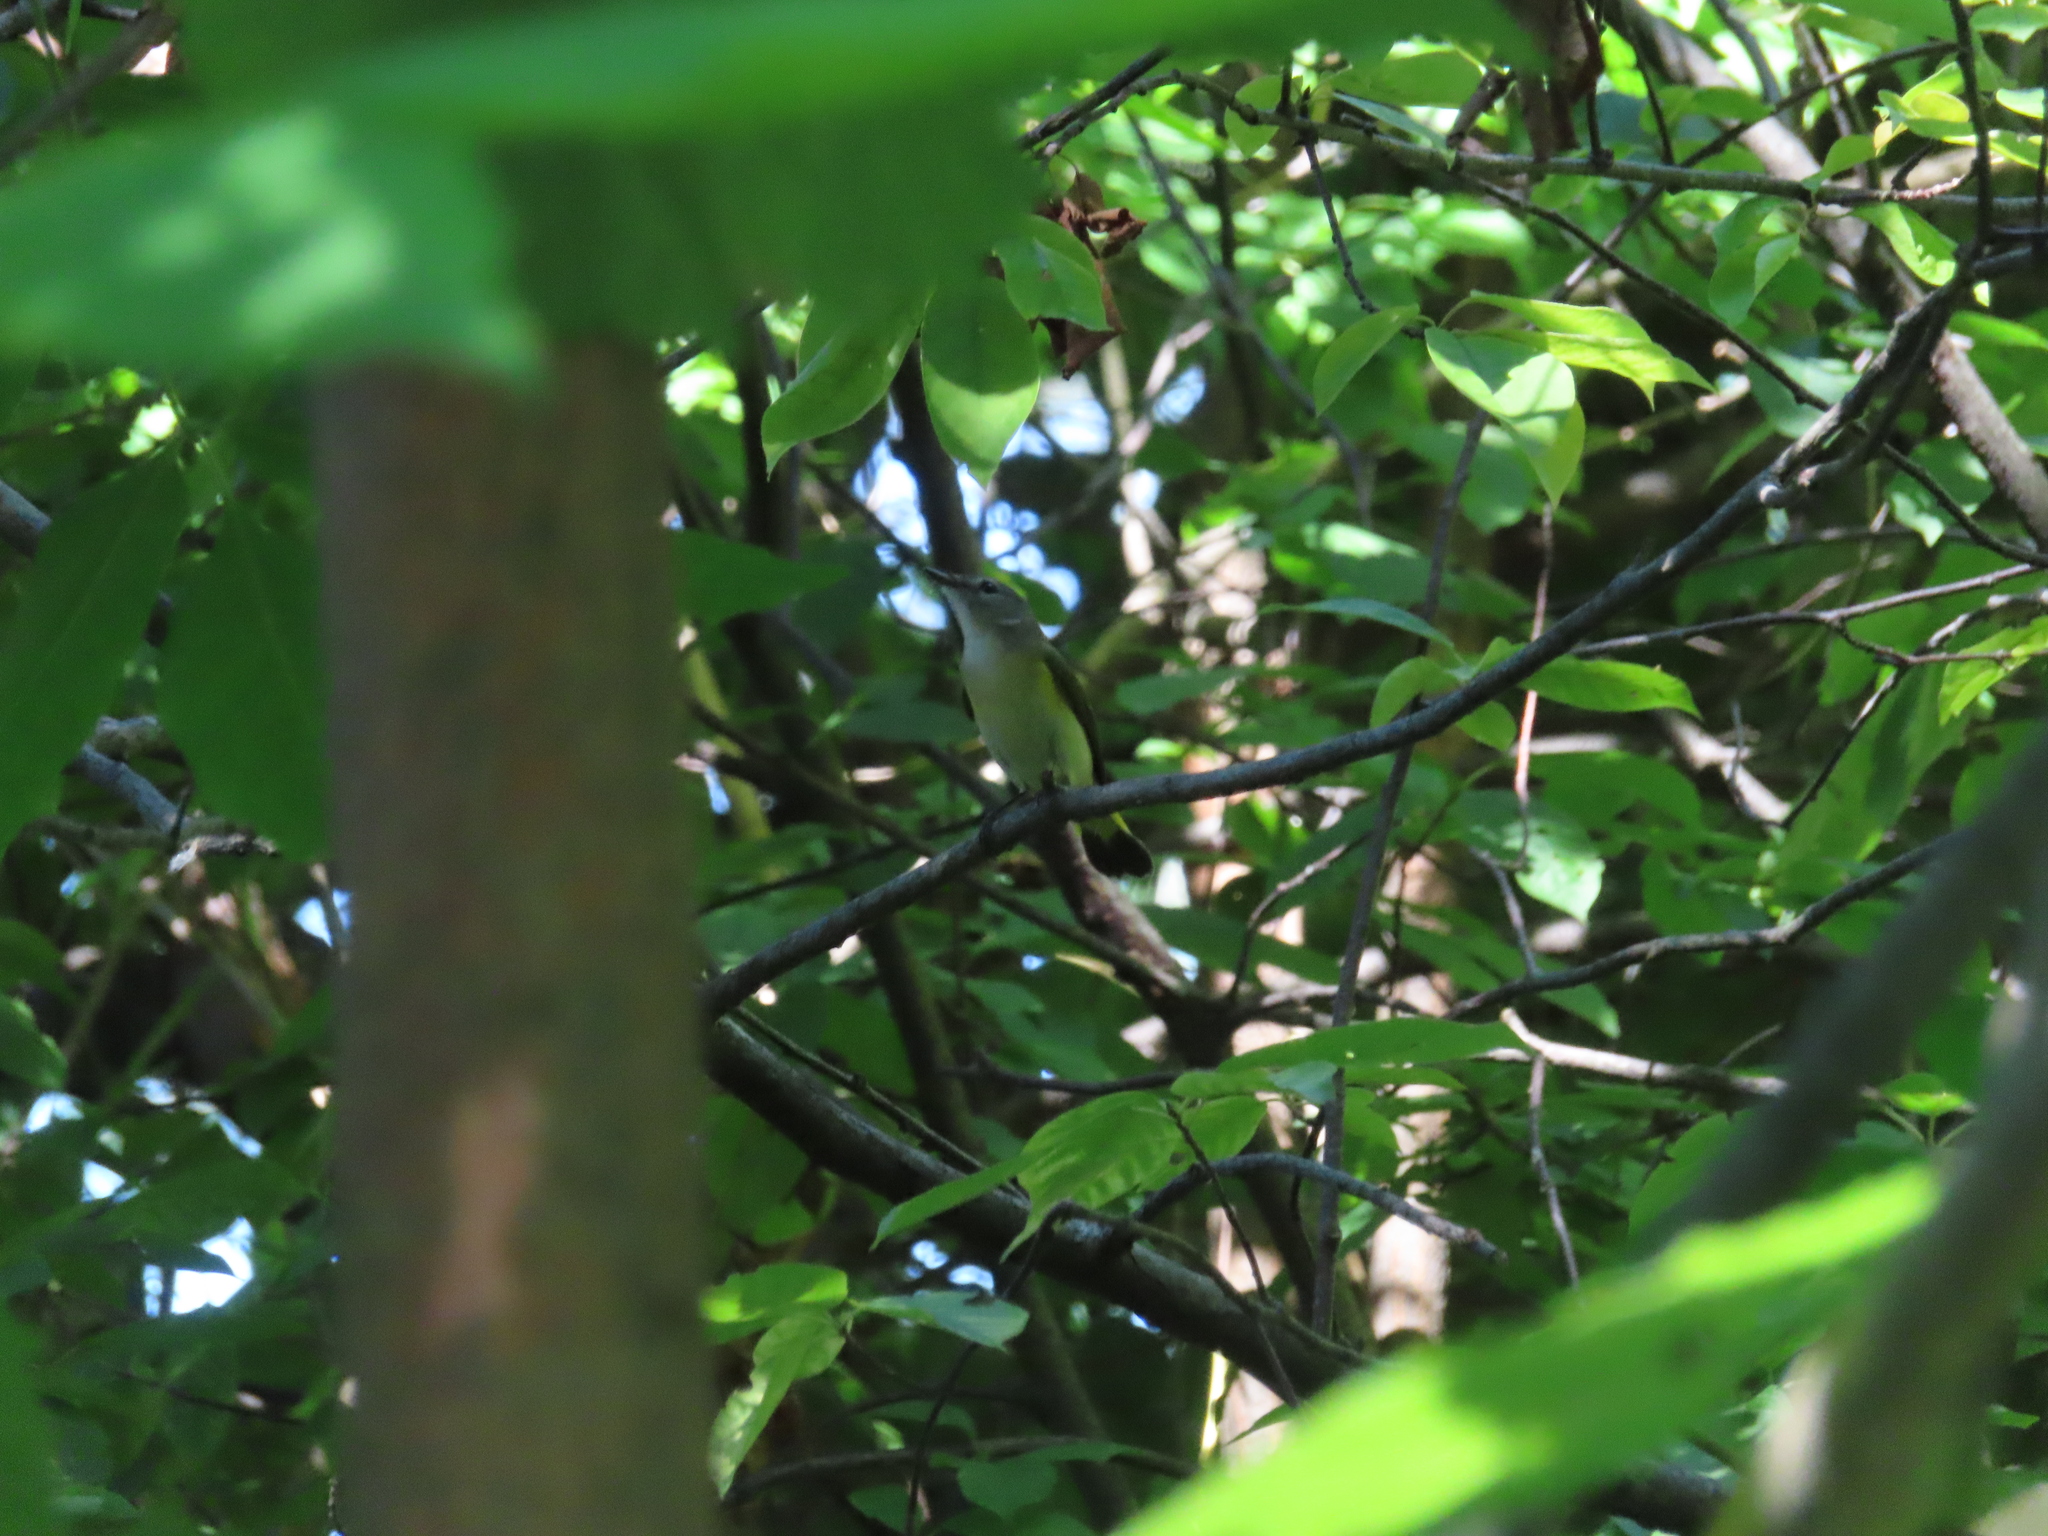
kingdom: Animalia
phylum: Chordata
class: Aves
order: Passeriformes
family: Parulidae
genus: Setophaga
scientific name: Setophaga ruticilla
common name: American redstart
